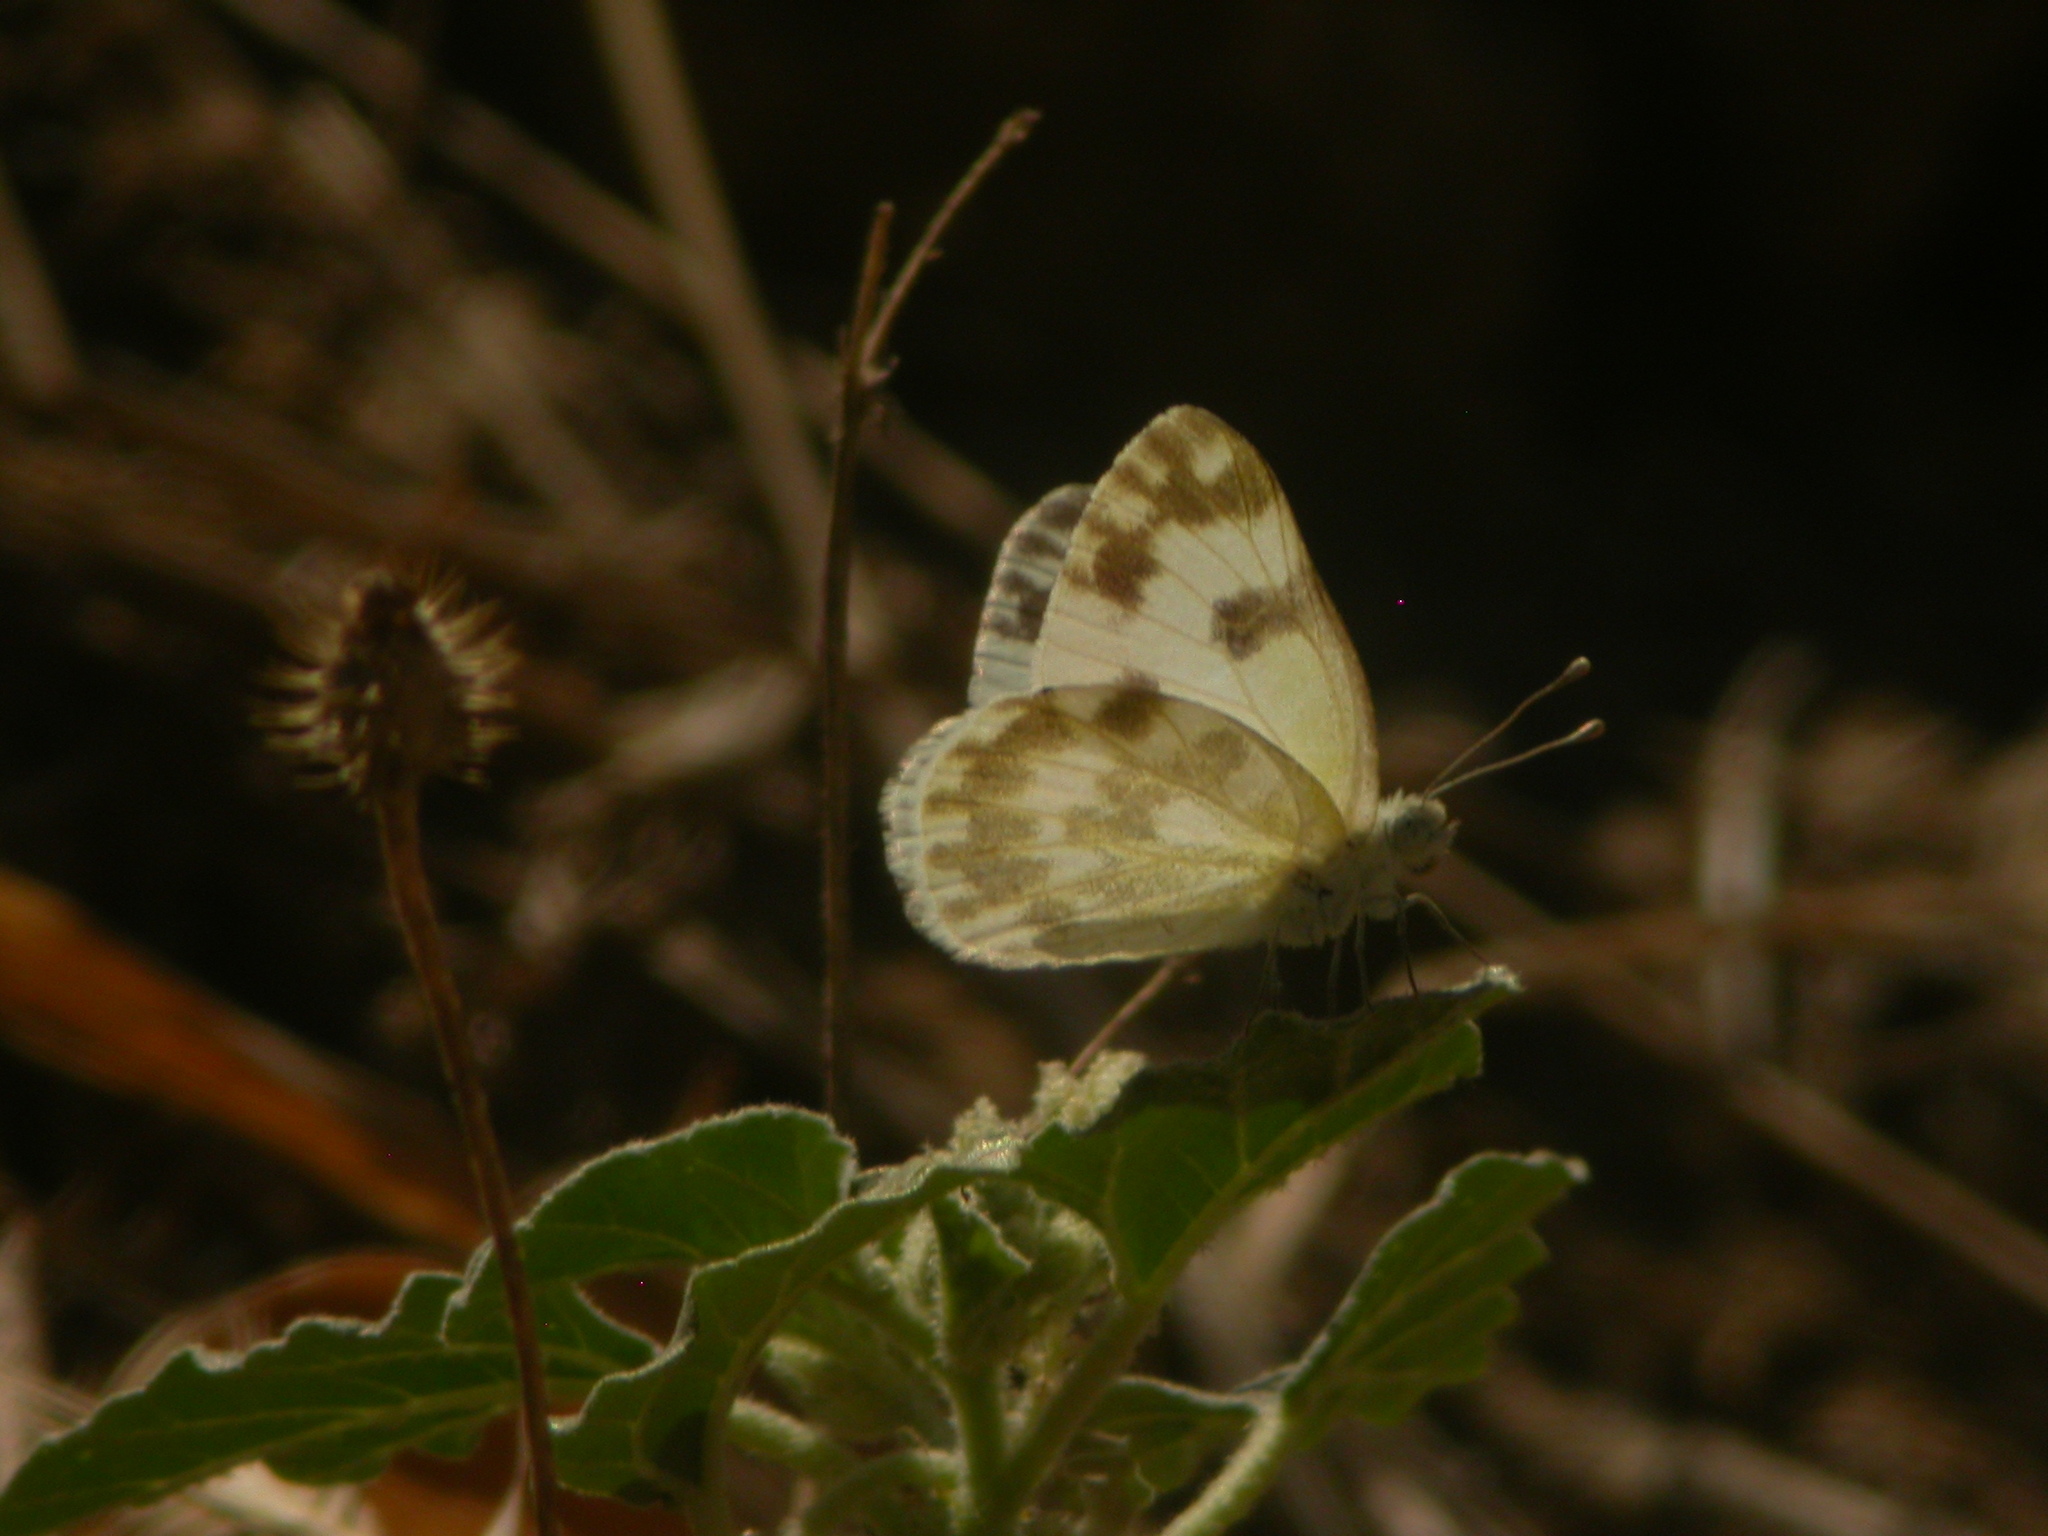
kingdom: Animalia
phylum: Arthropoda
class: Insecta
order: Lepidoptera
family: Pieridae
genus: Pontia
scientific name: Pontia edusa
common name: Eastern bath white
